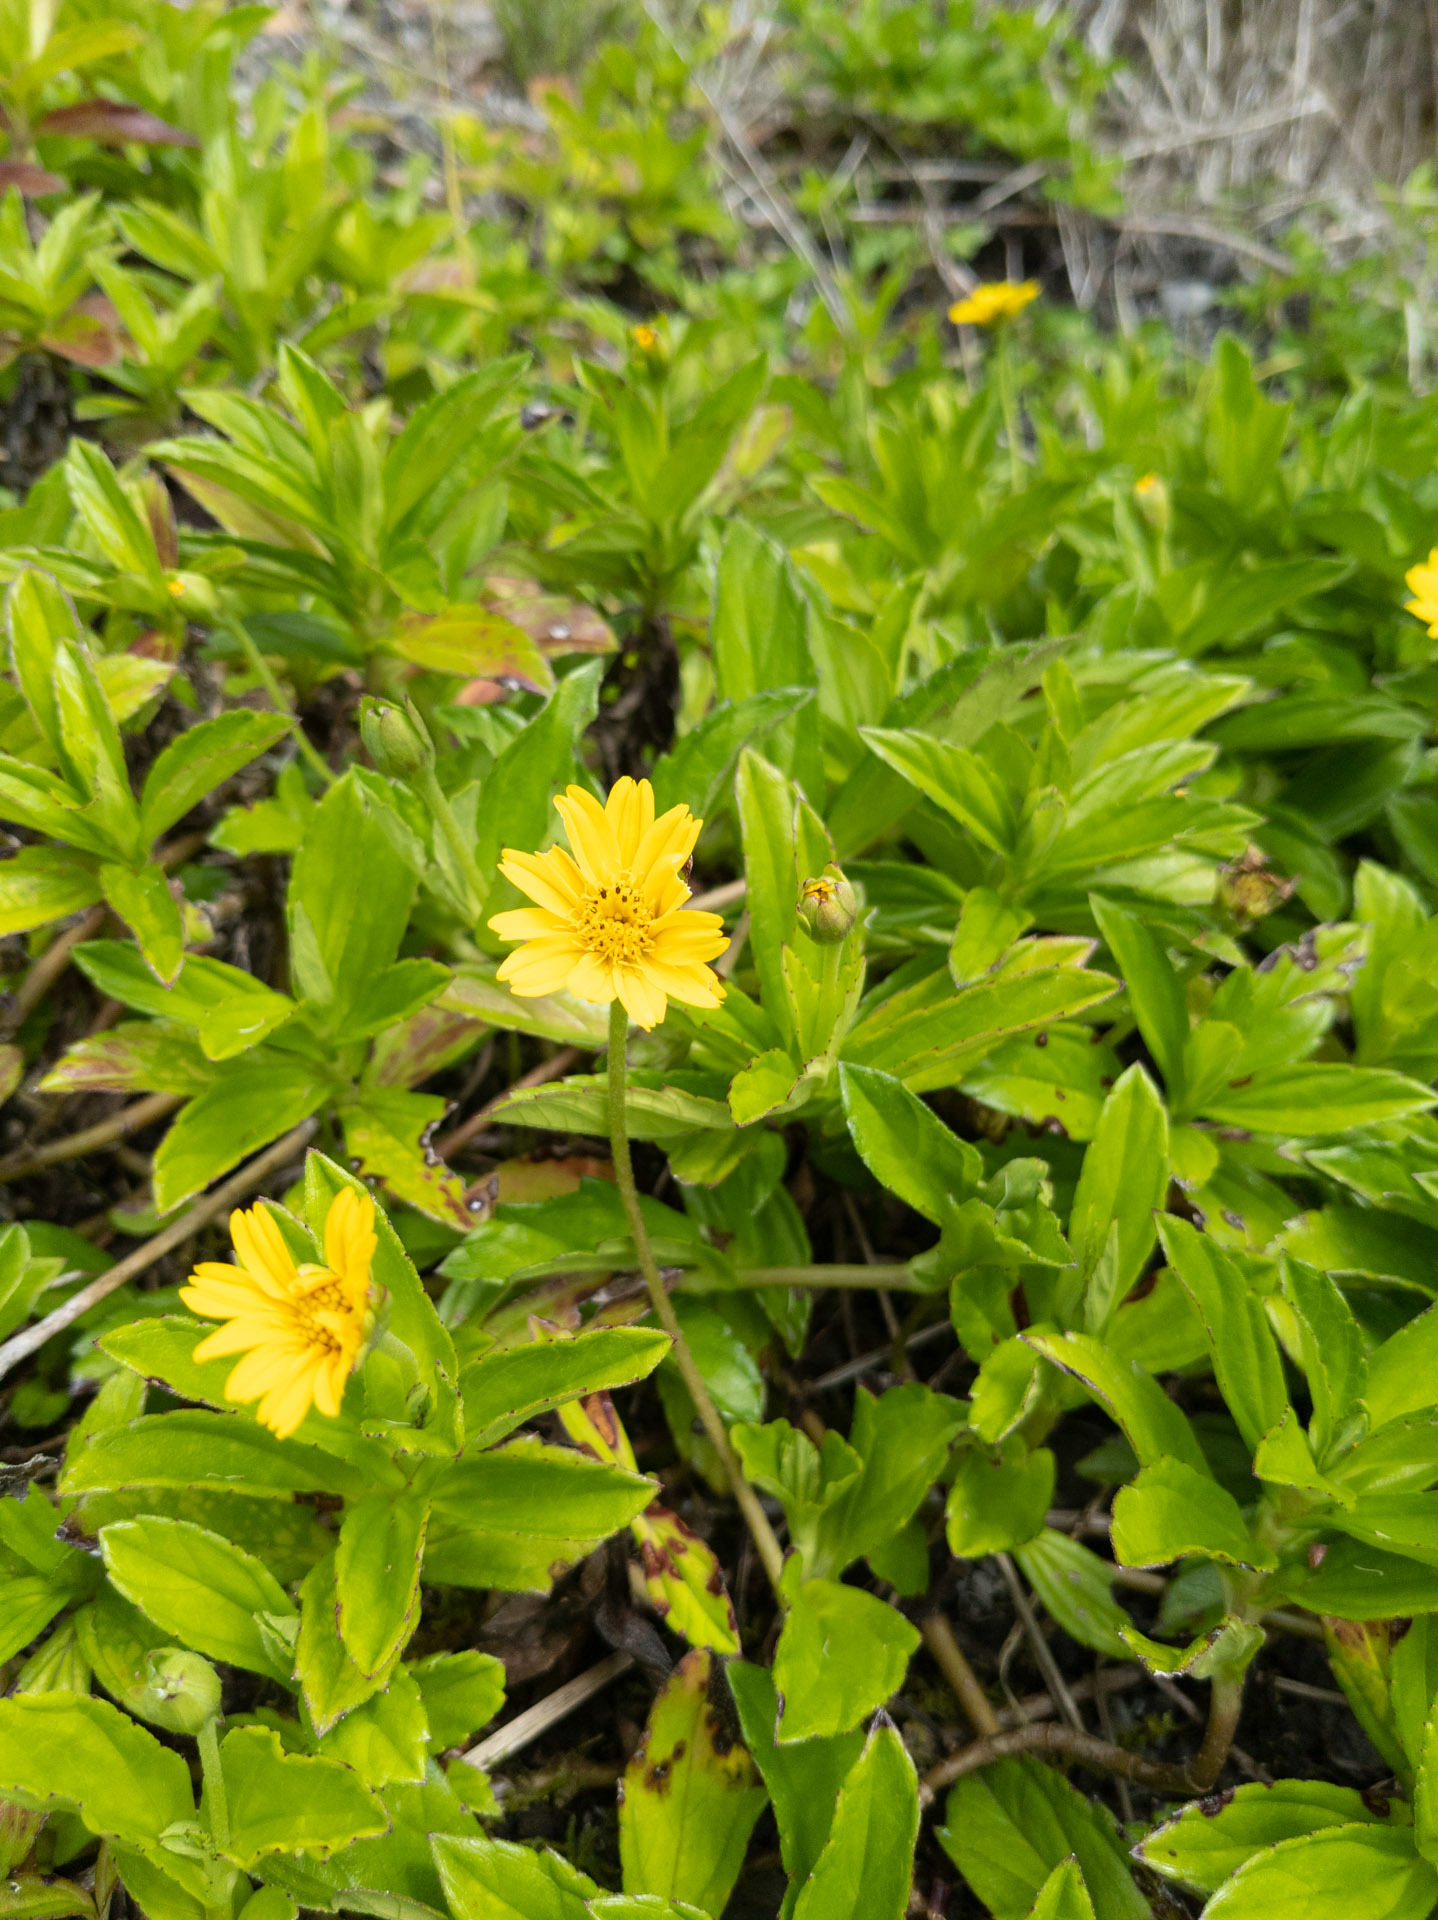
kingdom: Plantae
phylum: Tracheophyta
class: Magnoliopsida
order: Asterales
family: Asteraceae
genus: Sphagneticola
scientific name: Sphagneticola trilobata
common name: Bay biscayne creeping-oxeye
